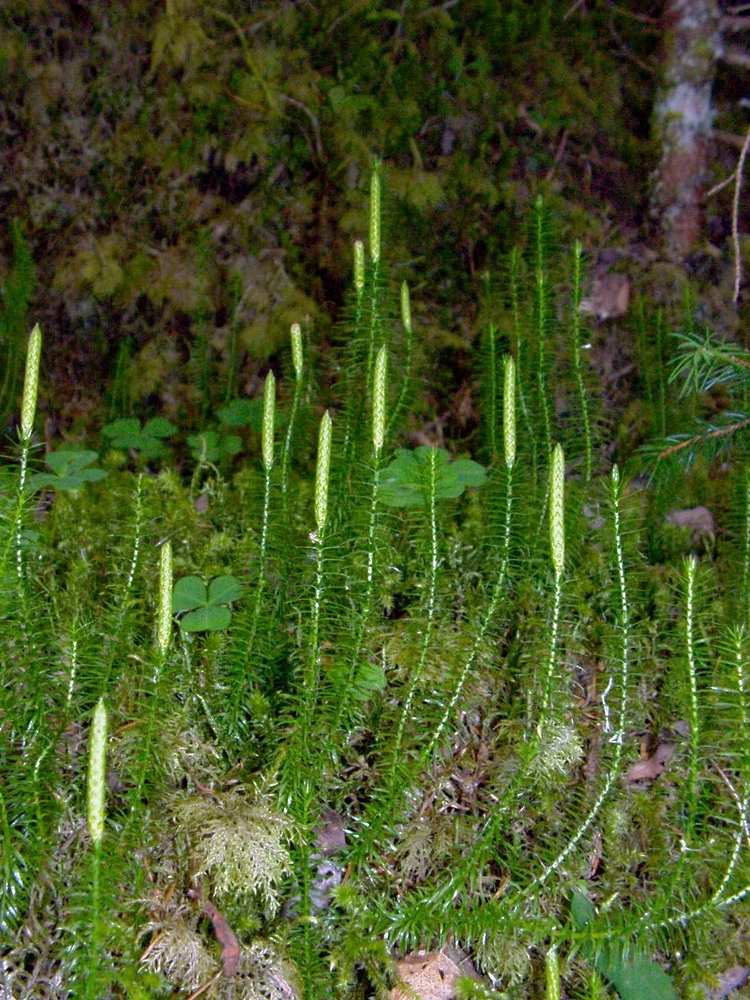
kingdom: Plantae
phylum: Tracheophyta
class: Lycopodiopsida
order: Lycopodiales
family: Lycopodiaceae
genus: Spinulum
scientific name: Spinulum annotinum
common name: Interrupted club-moss
